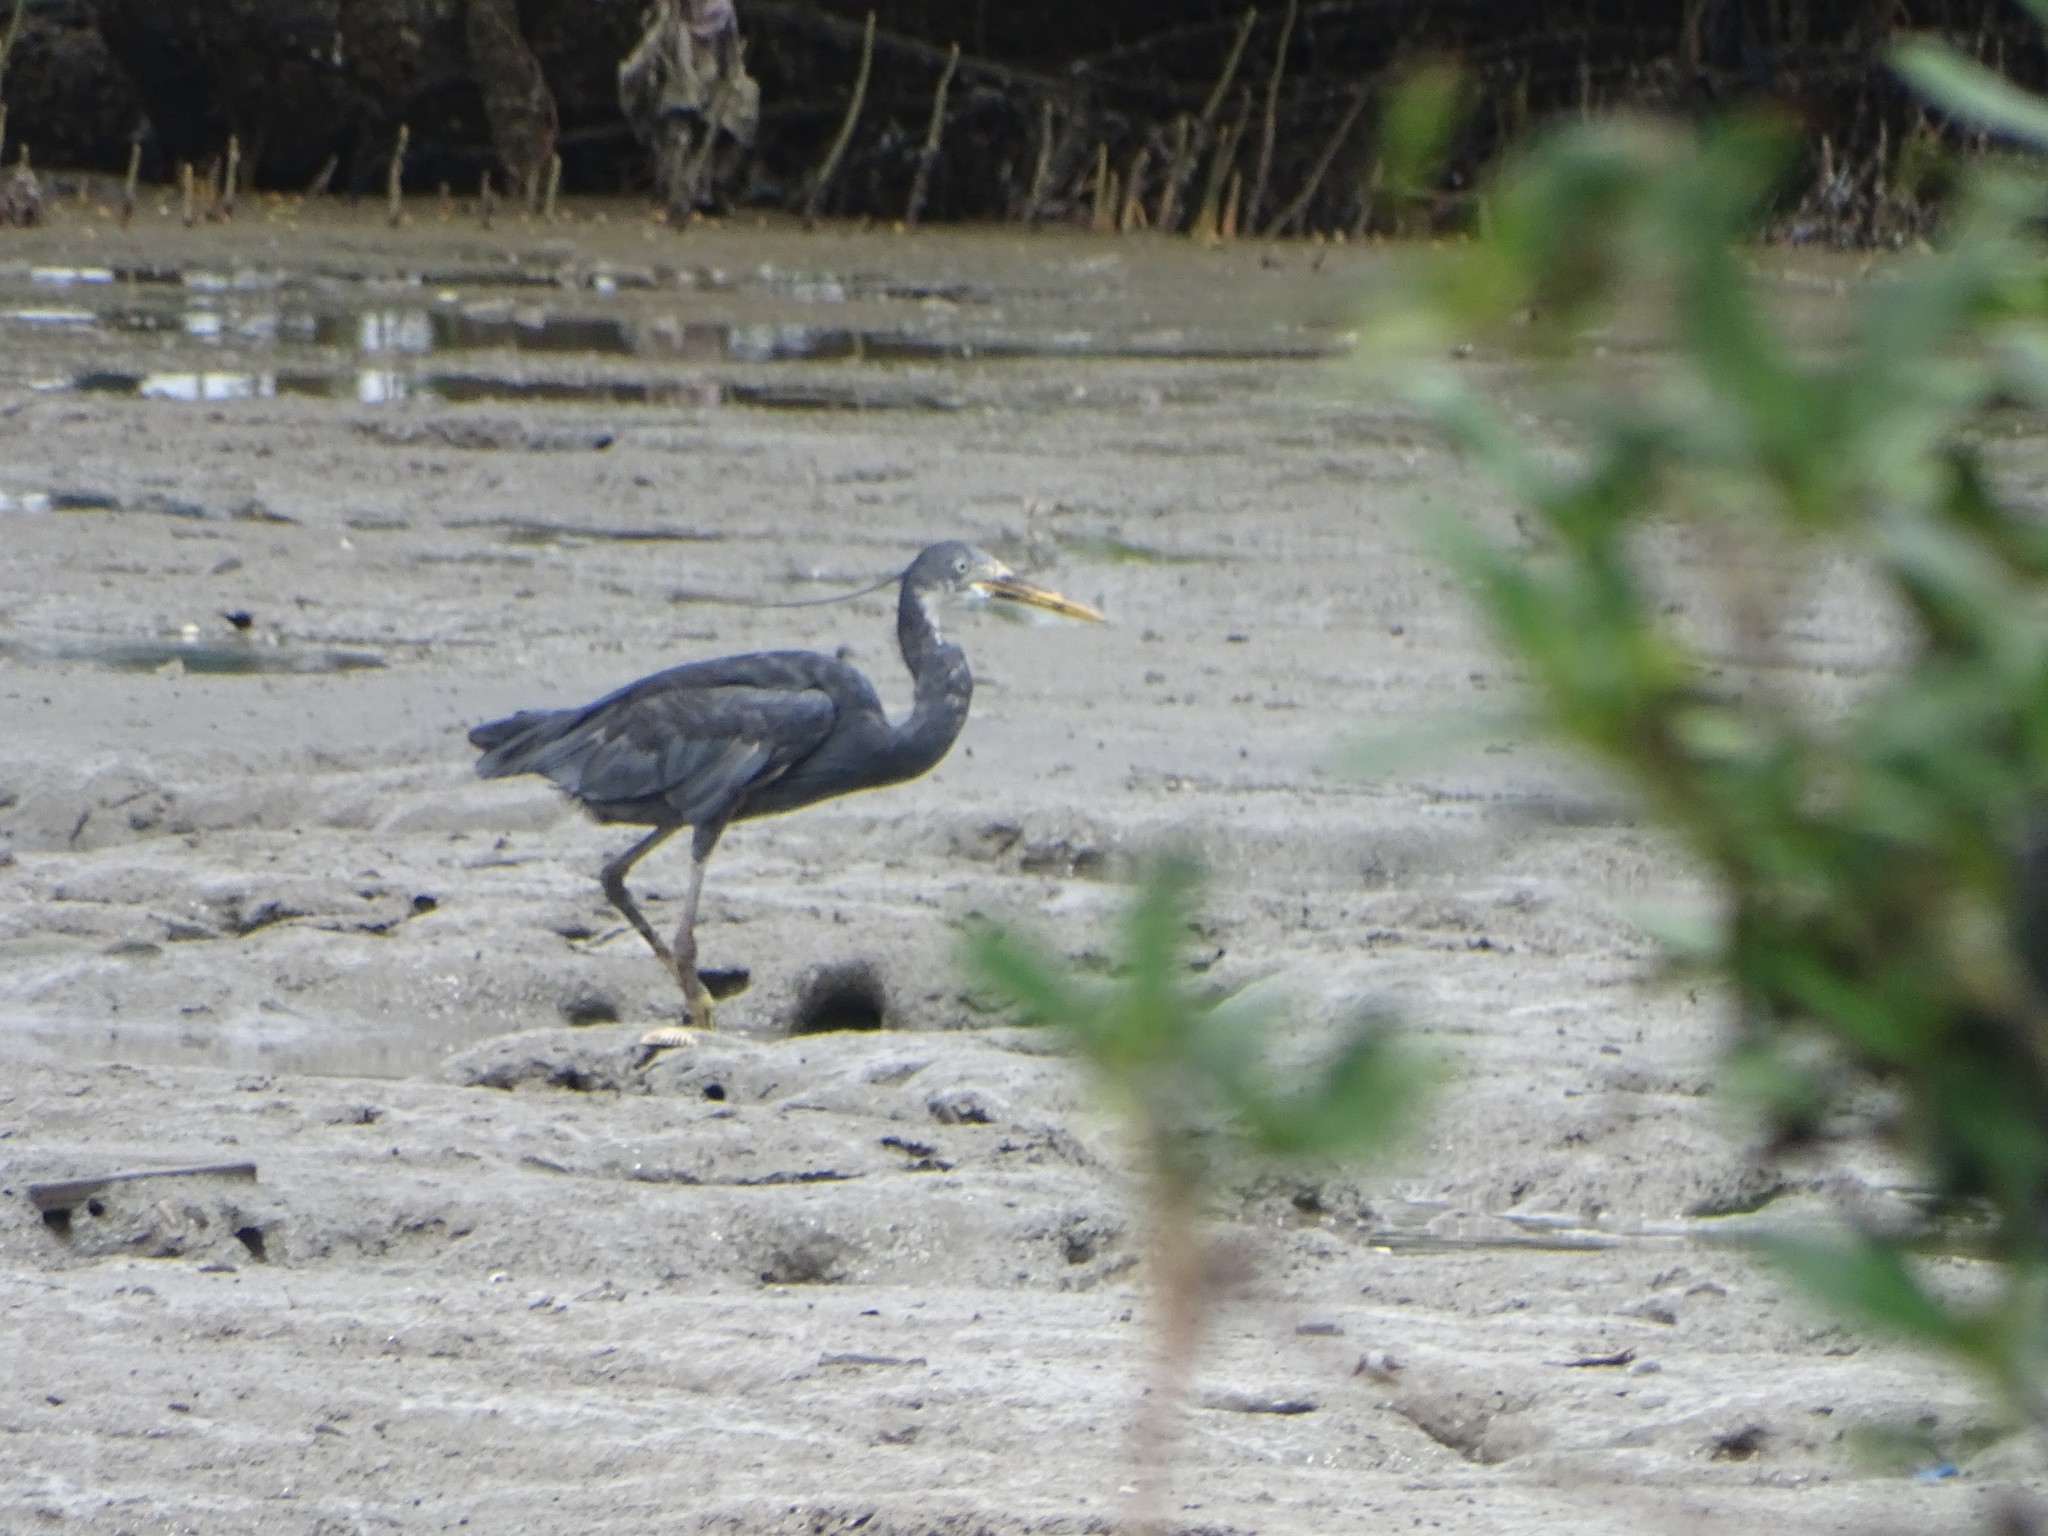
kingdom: Animalia
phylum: Chordata
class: Aves
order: Pelecaniformes
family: Ardeidae
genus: Egretta
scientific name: Egretta gularis
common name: Western reef-heron
